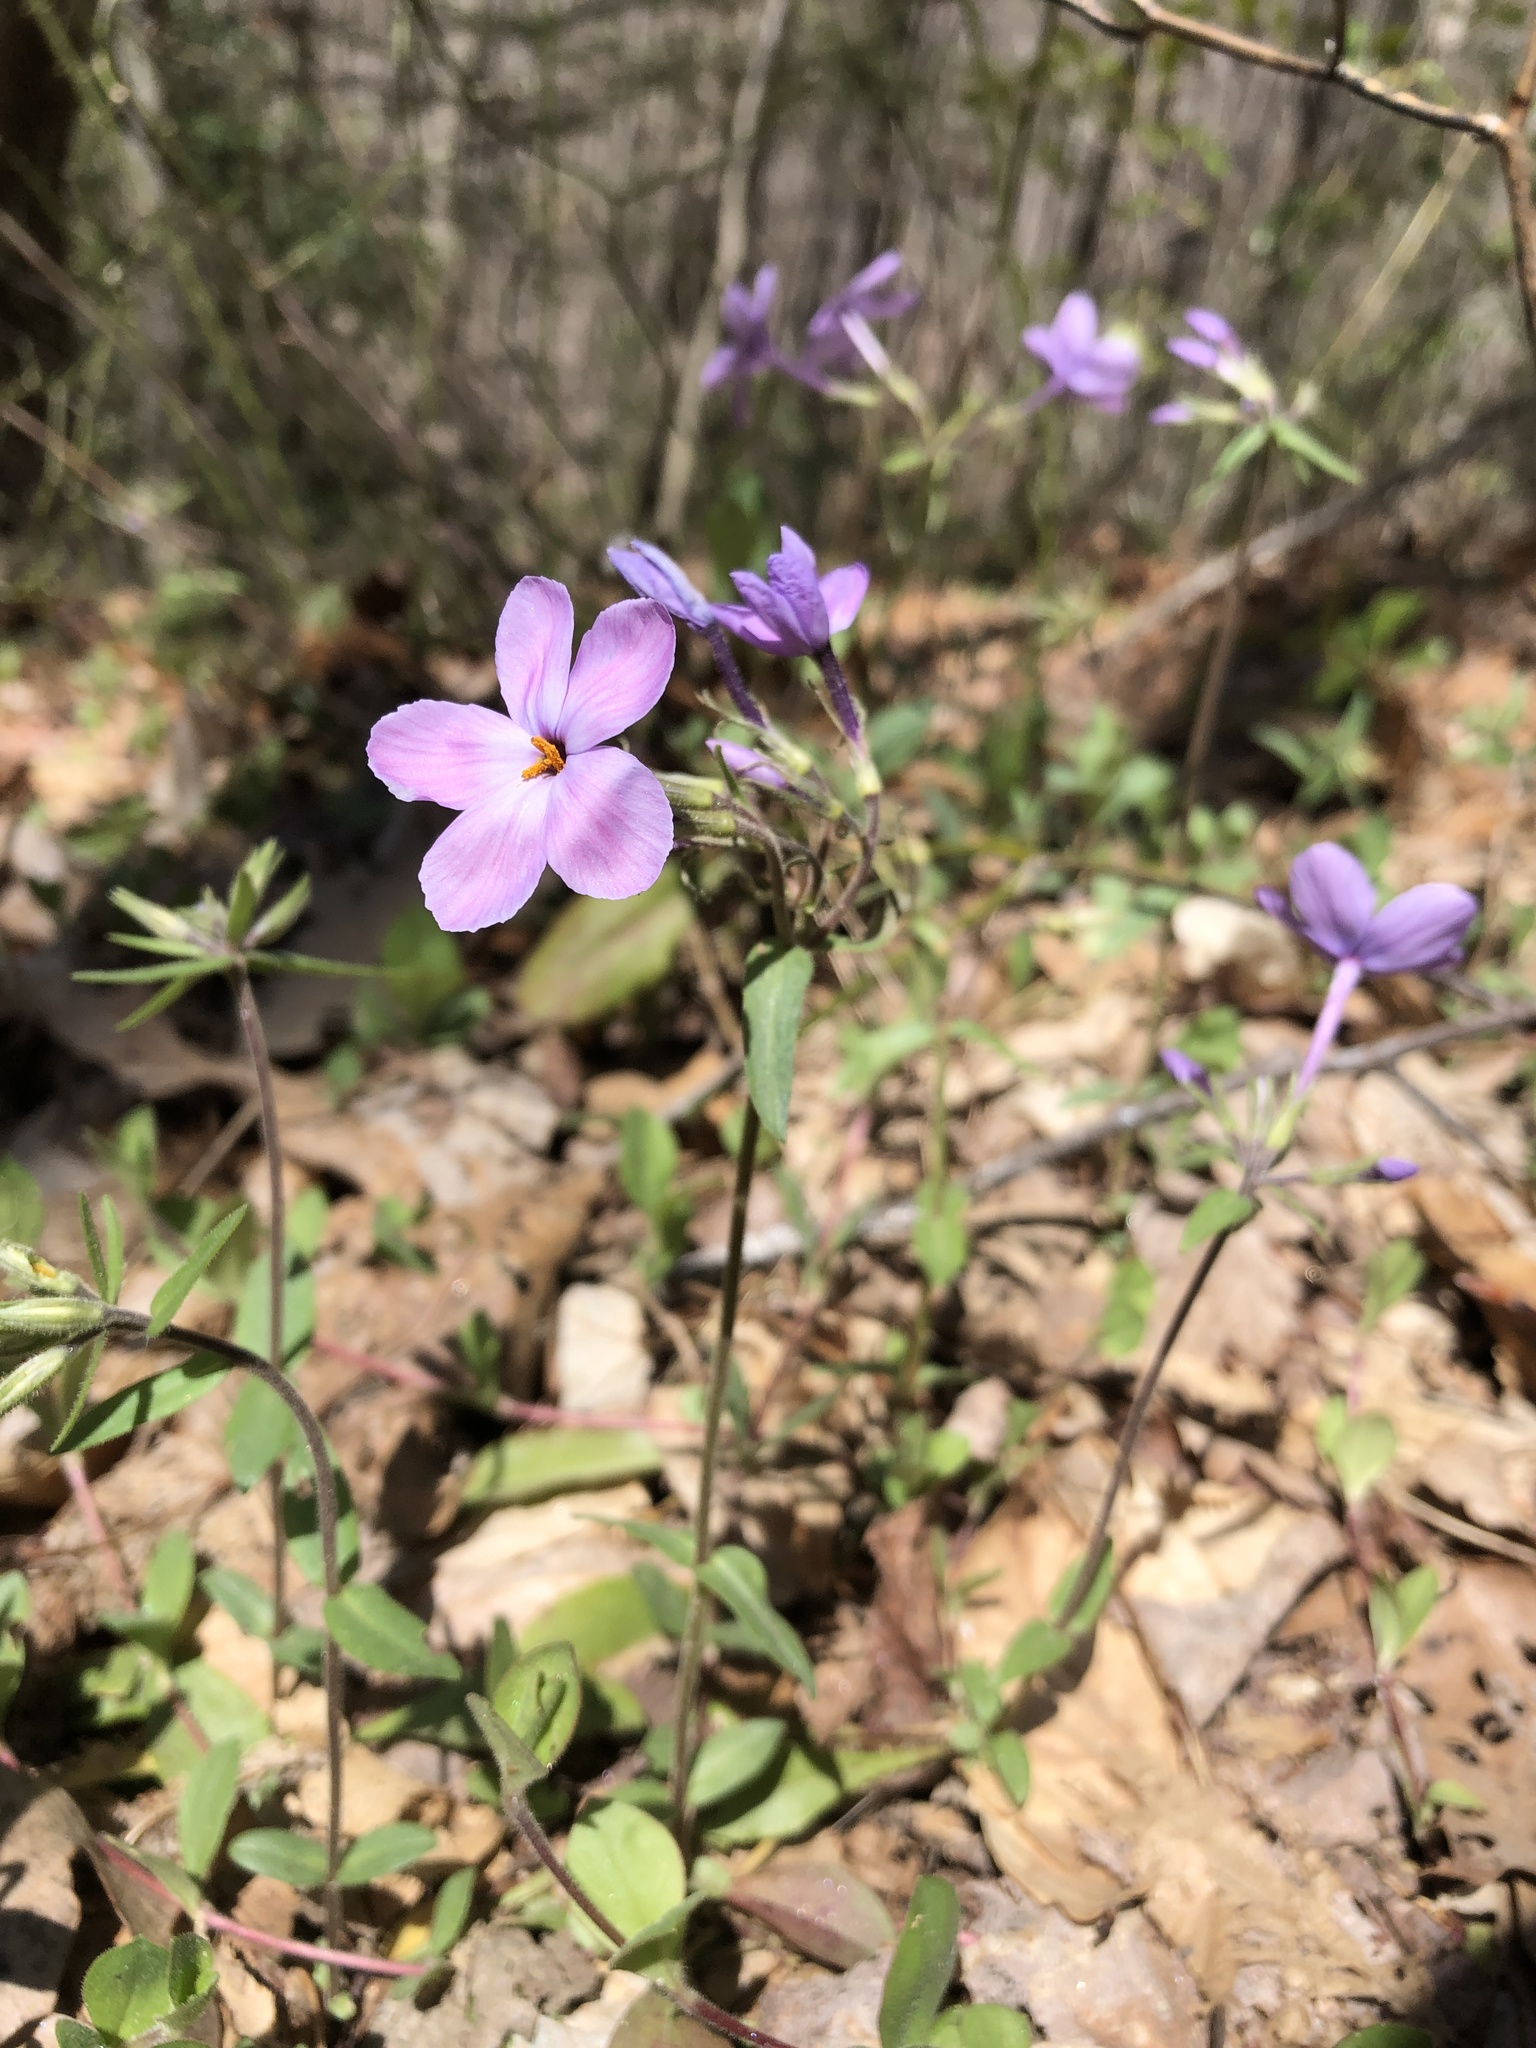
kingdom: Plantae
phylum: Tracheophyta
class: Magnoliopsida
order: Ericales
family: Polemoniaceae
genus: Phlox
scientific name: Phlox stolonifera
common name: Creeping phlox
